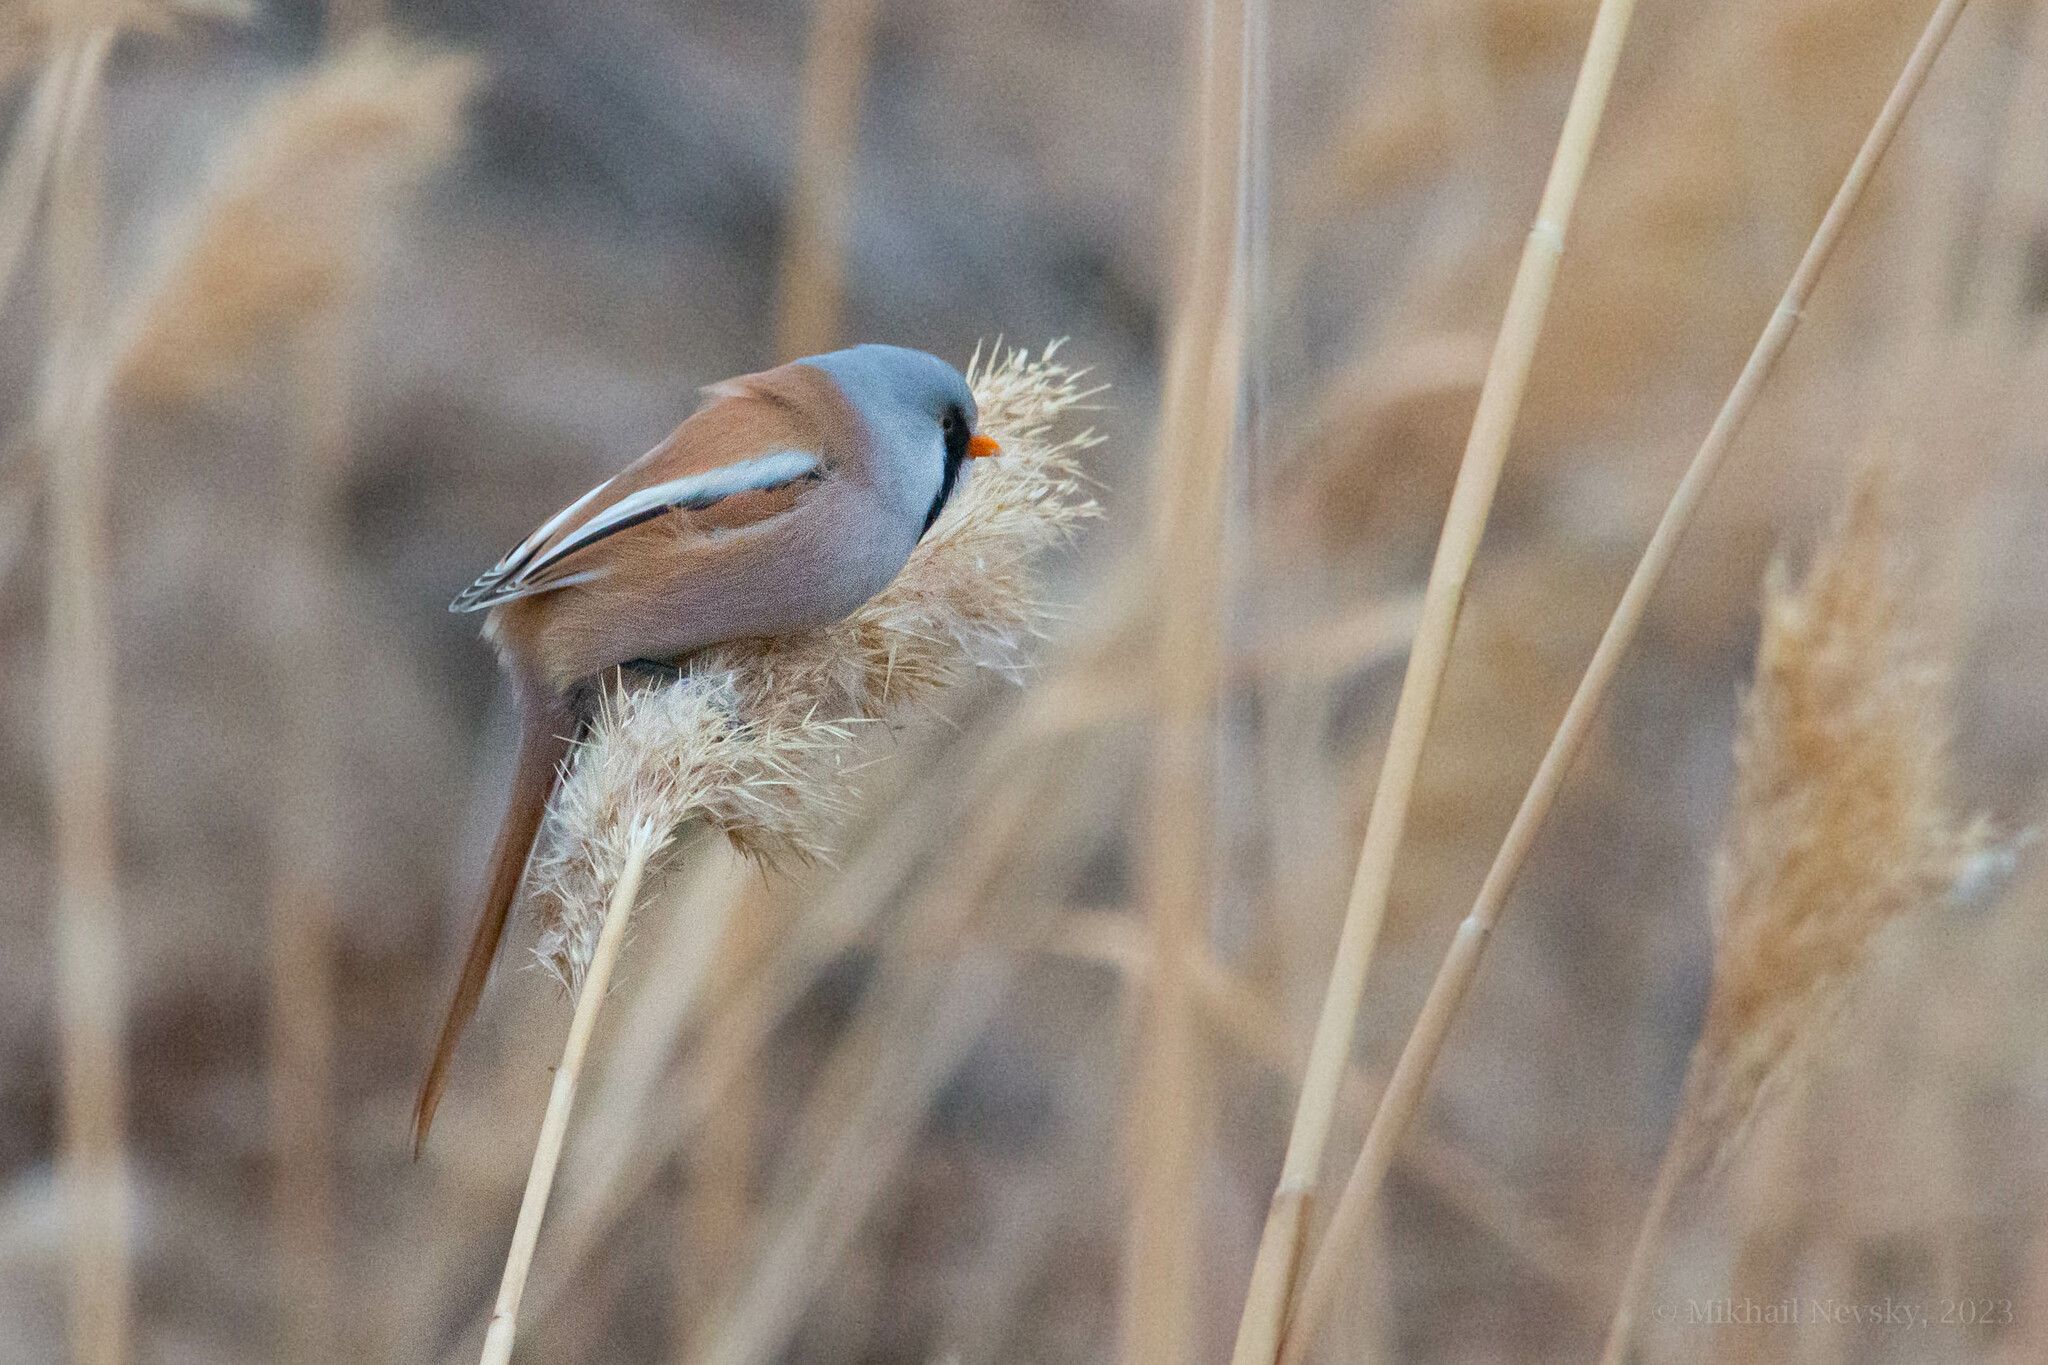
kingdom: Animalia
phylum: Chordata
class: Aves
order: Passeriformes
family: Panuridae
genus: Panurus
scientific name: Panurus biarmicus
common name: Bearded reedling
